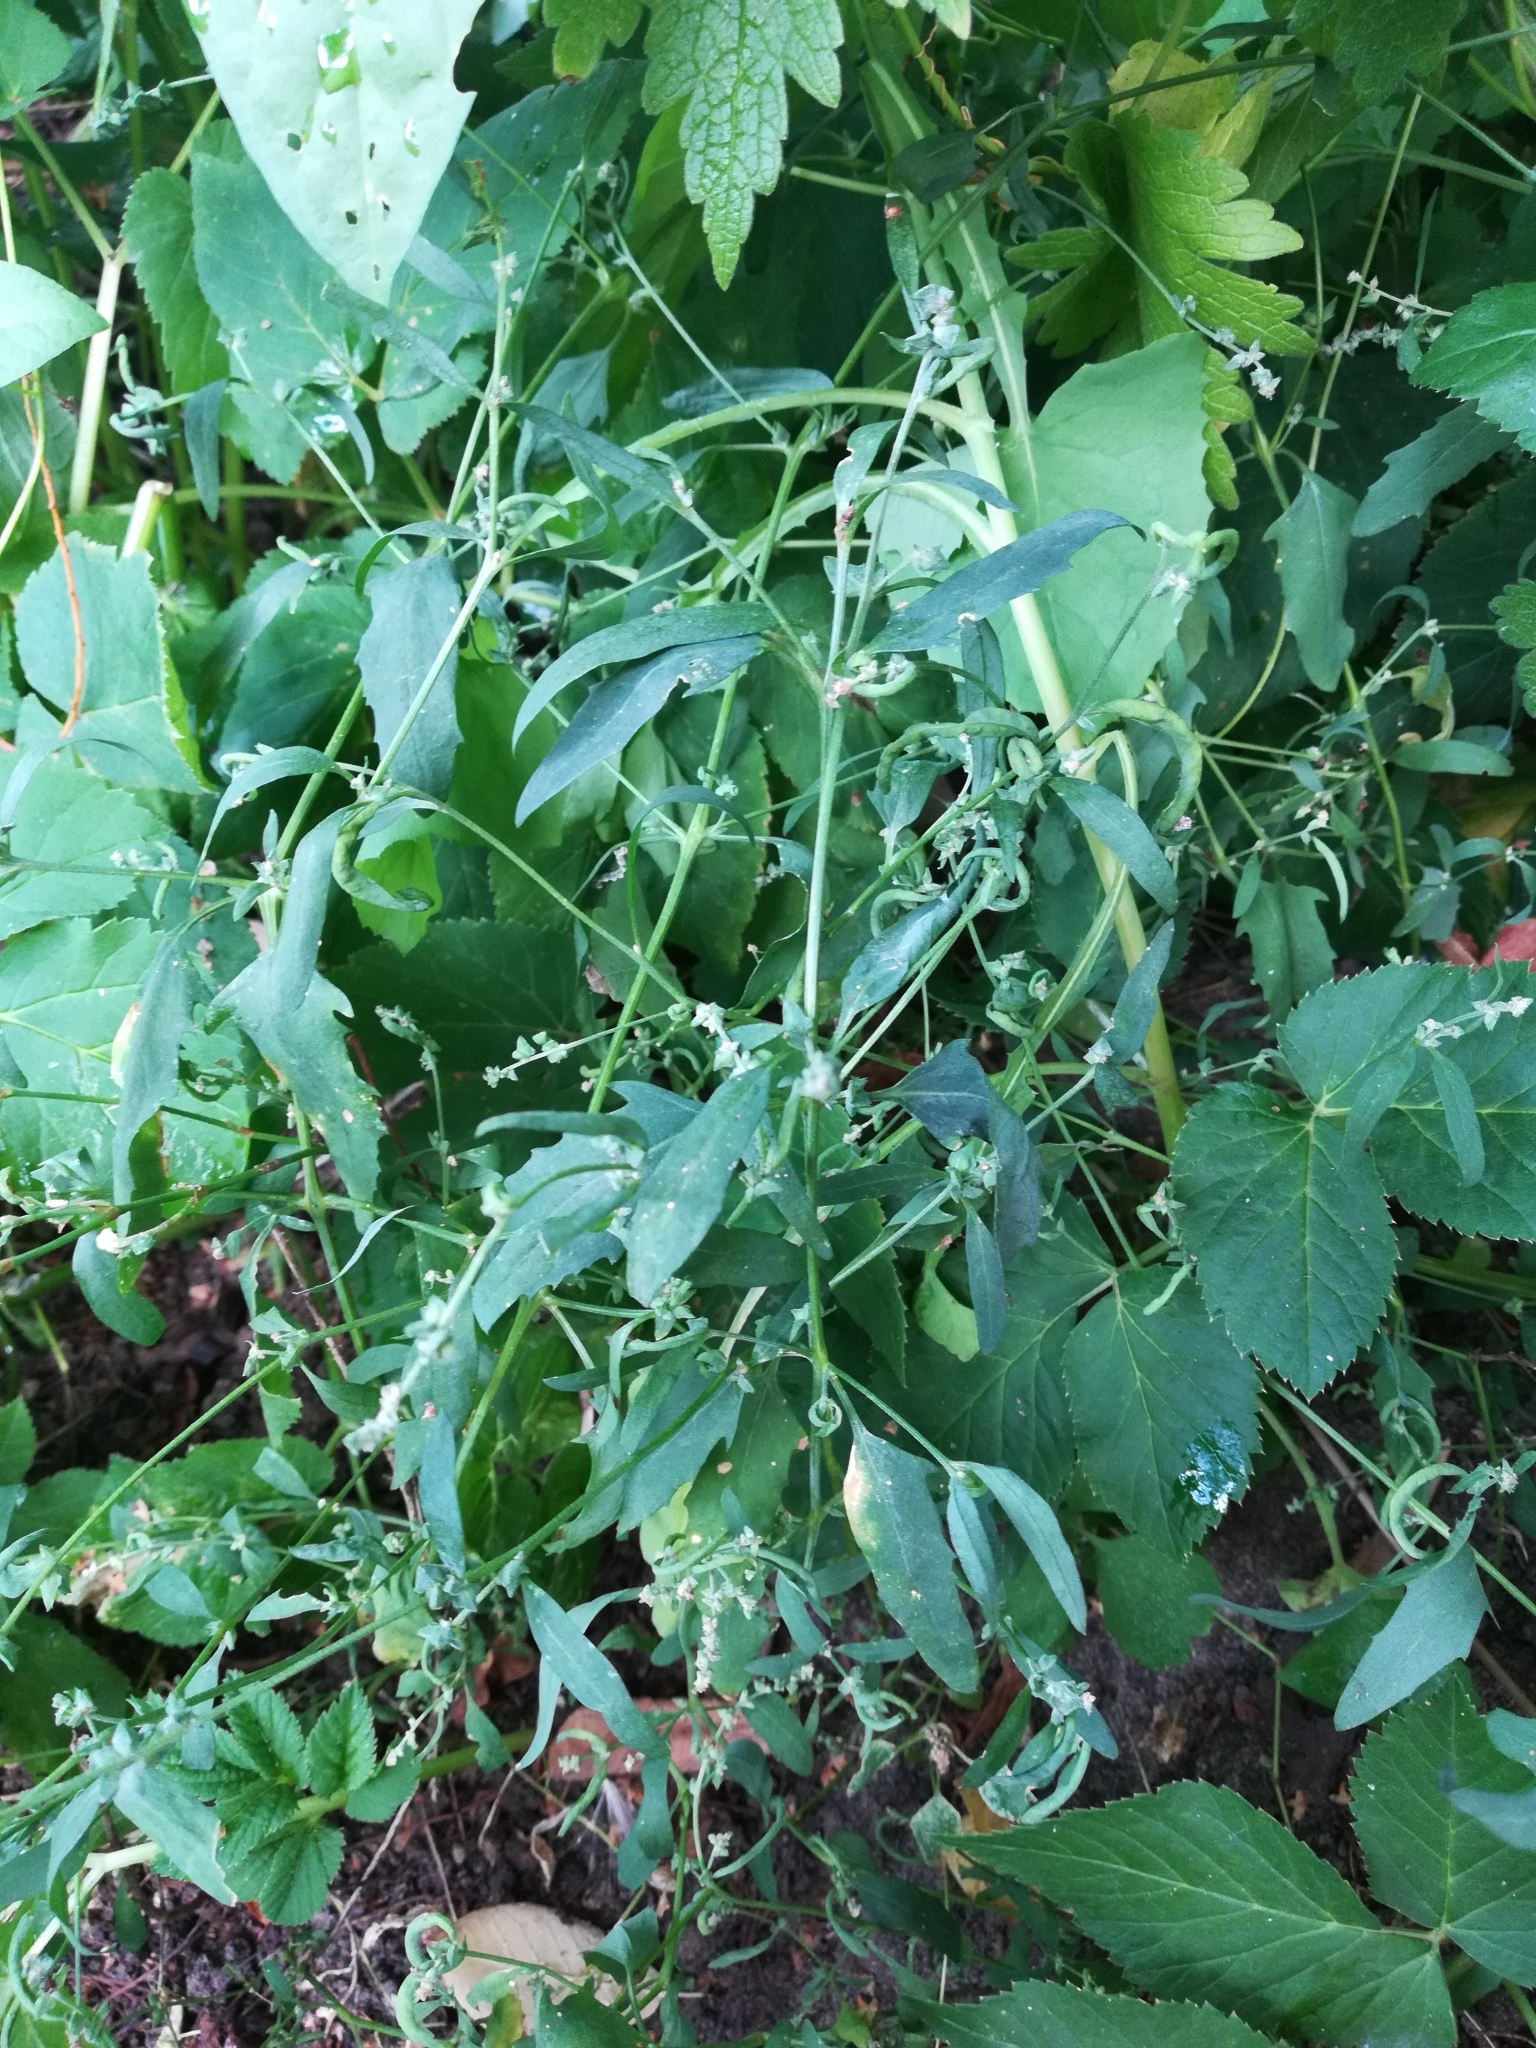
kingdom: Plantae
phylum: Tracheophyta
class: Magnoliopsida
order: Caryophyllales
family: Amaranthaceae
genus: Atriplex
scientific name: Atriplex patula
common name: Common orache
